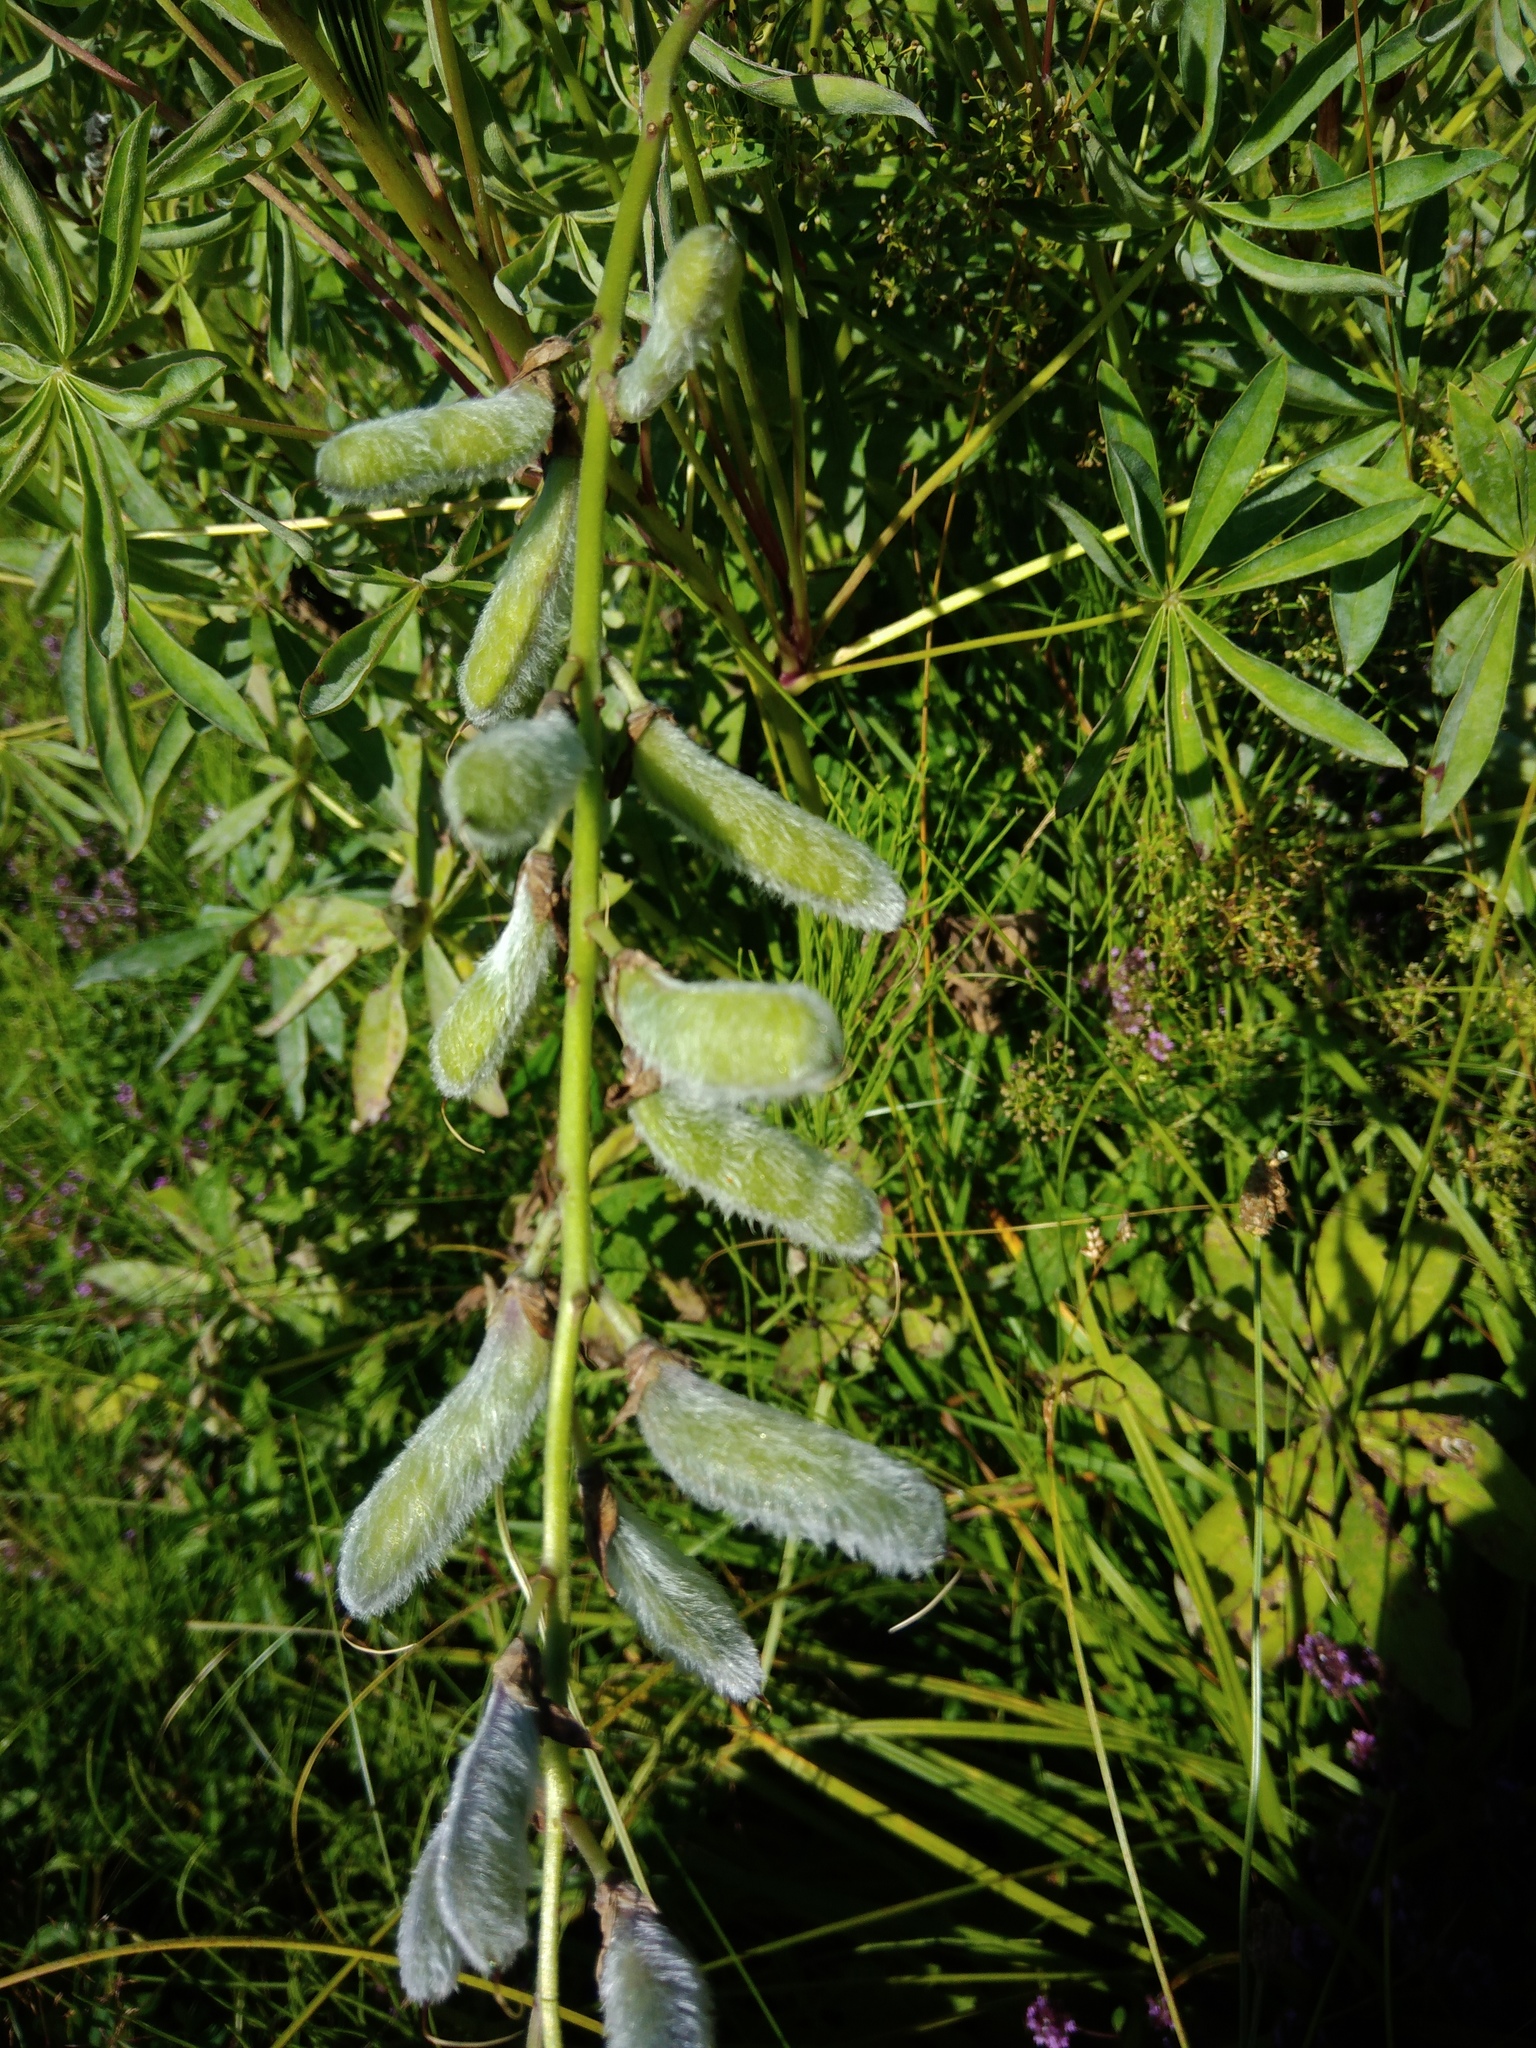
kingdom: Plantae
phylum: Tracheophyta
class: Magnoliopsida
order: Fabales
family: Fabaceae
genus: Lupinus
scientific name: Lupinus polyphyllus
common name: Garden lupin
